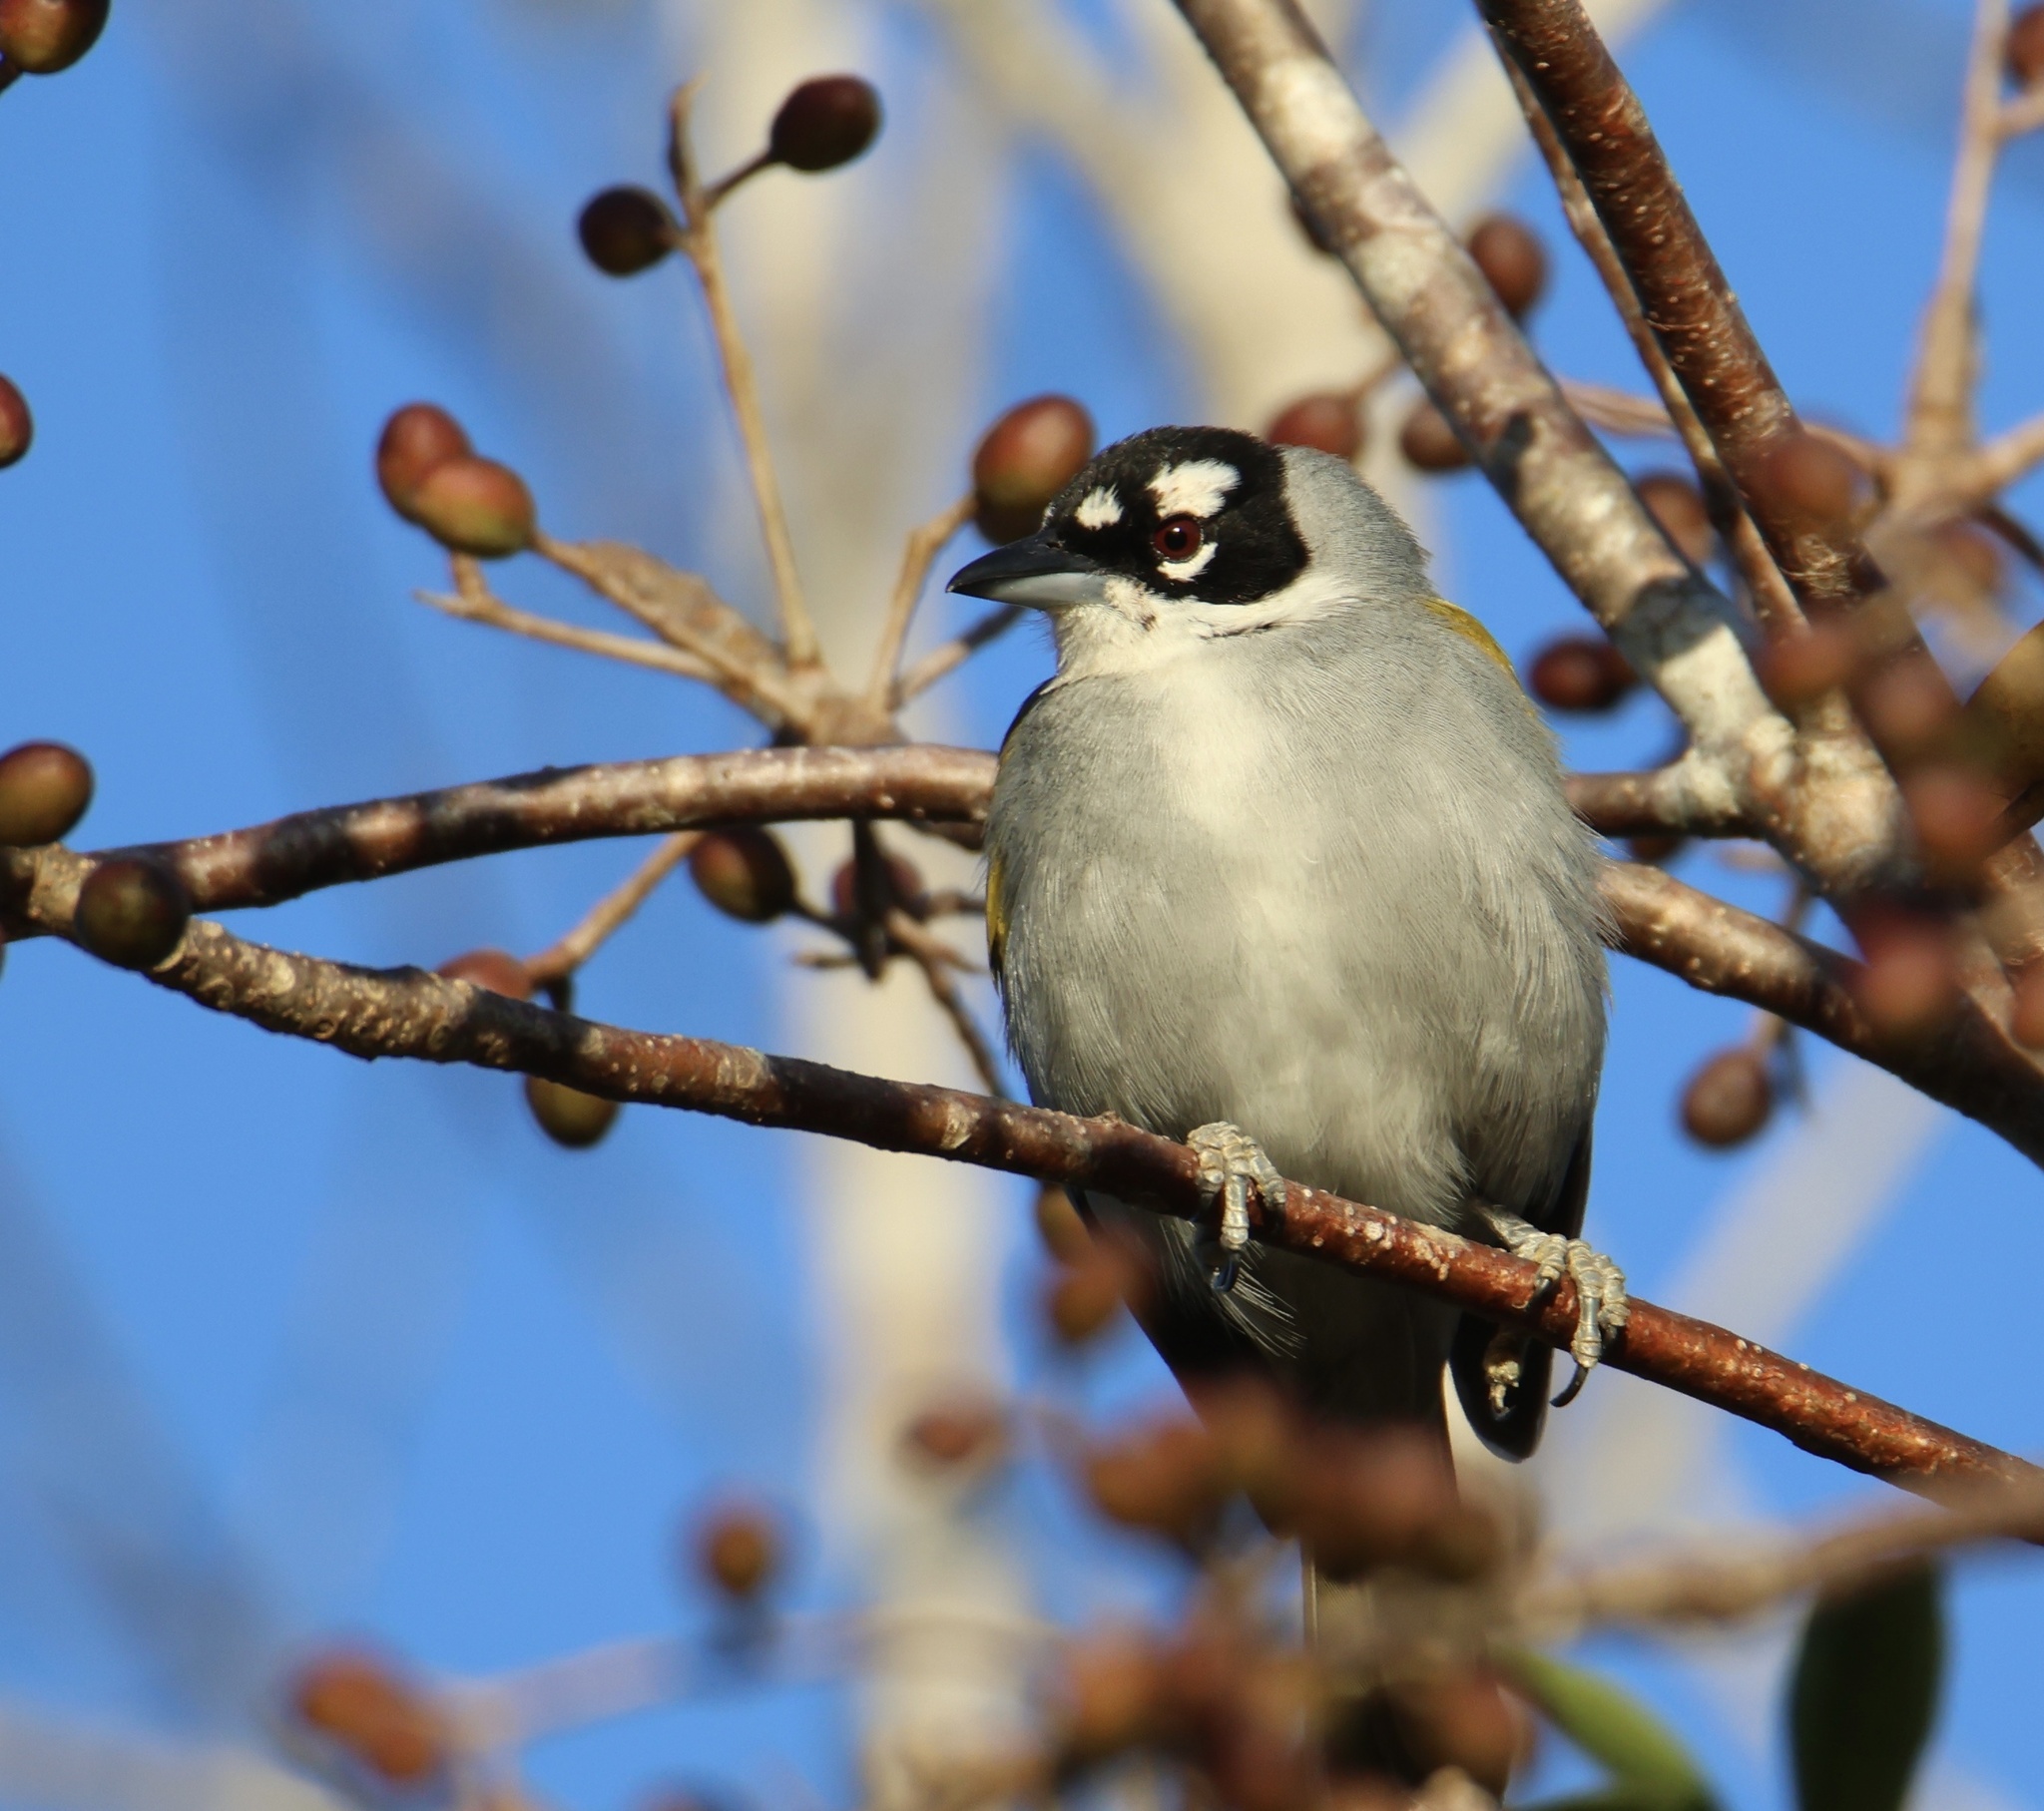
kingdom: Animalia
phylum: Chordata
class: Aves
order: Passeriformes
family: Phaenicophilidae
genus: Phaenicophilus
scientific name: Phaenicophilus palmarum
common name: Black-crowned palm-tanager
